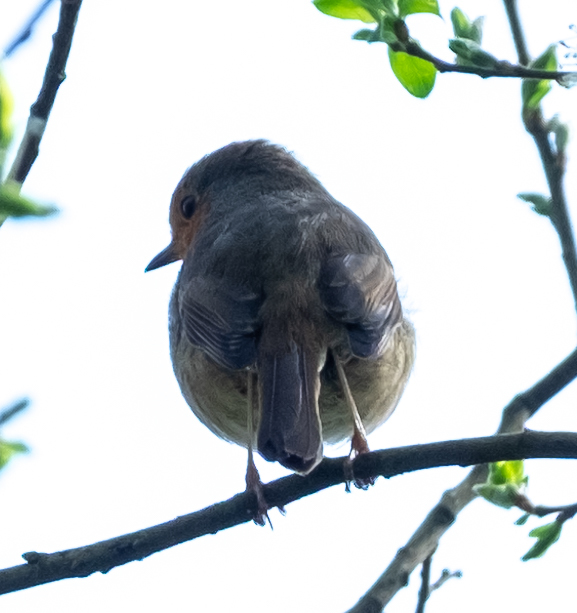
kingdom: Animalia
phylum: Chordata
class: Aves
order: Passeriformes
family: Muscicapidae
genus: Erithacus
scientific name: Erithacus rubecula
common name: European robin
